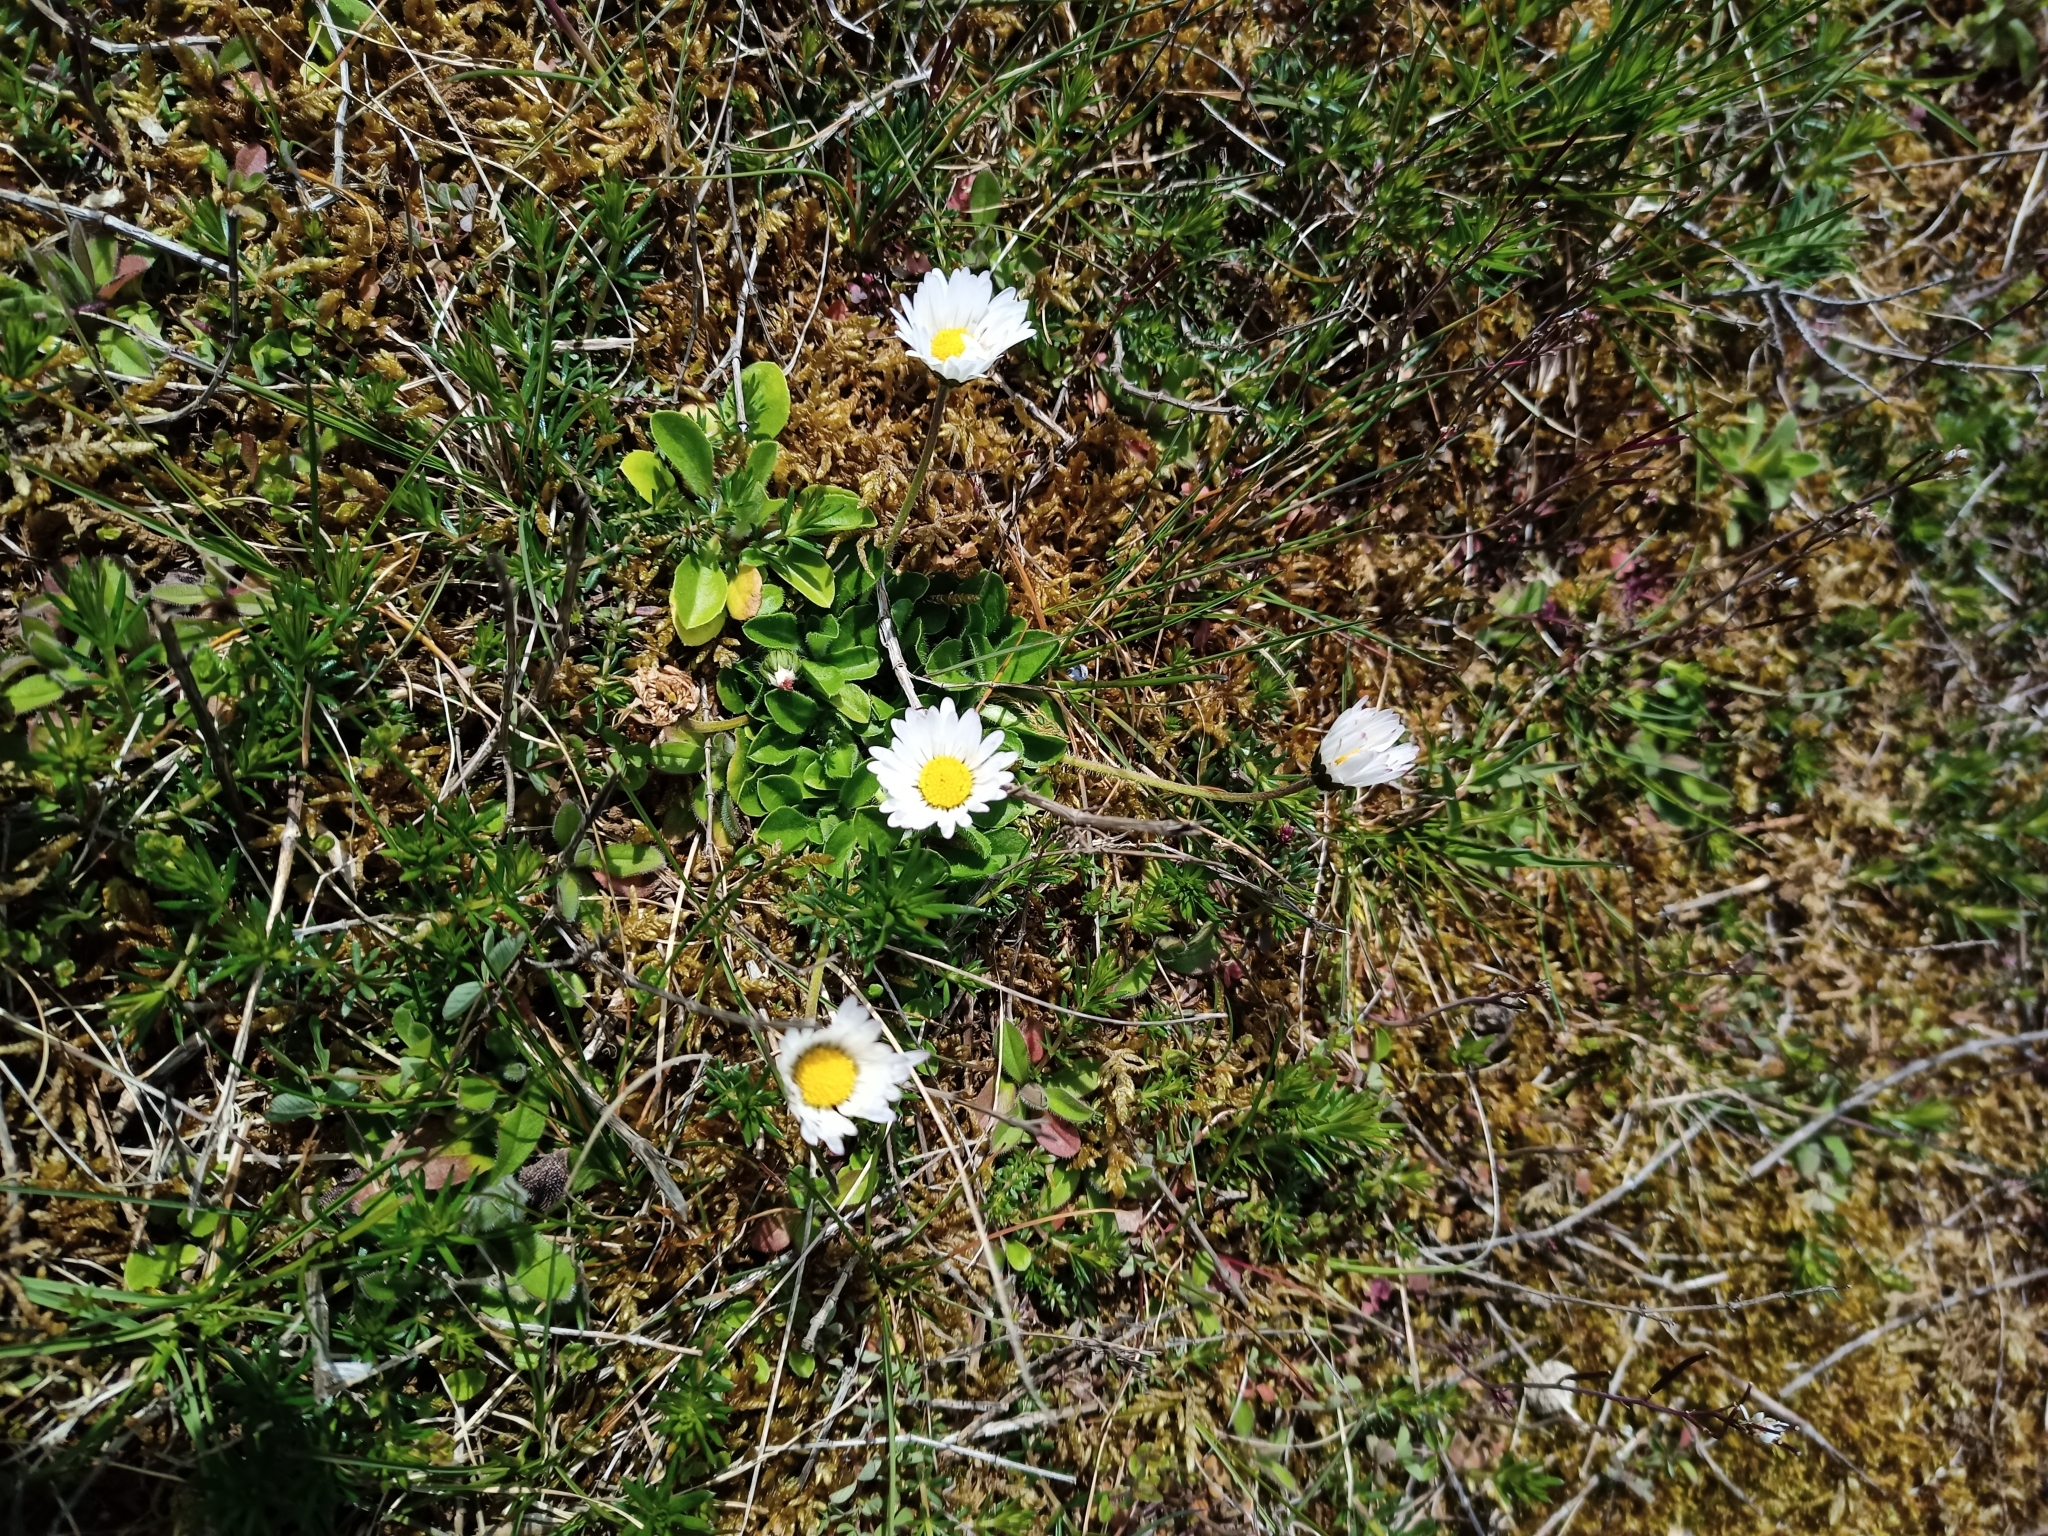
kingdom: Plantae
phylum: Tracheophyta
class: Magnoliopsida
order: Asterales
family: Asteraceae
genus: Bellis
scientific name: Bellis perennis
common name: Lawndaisy
